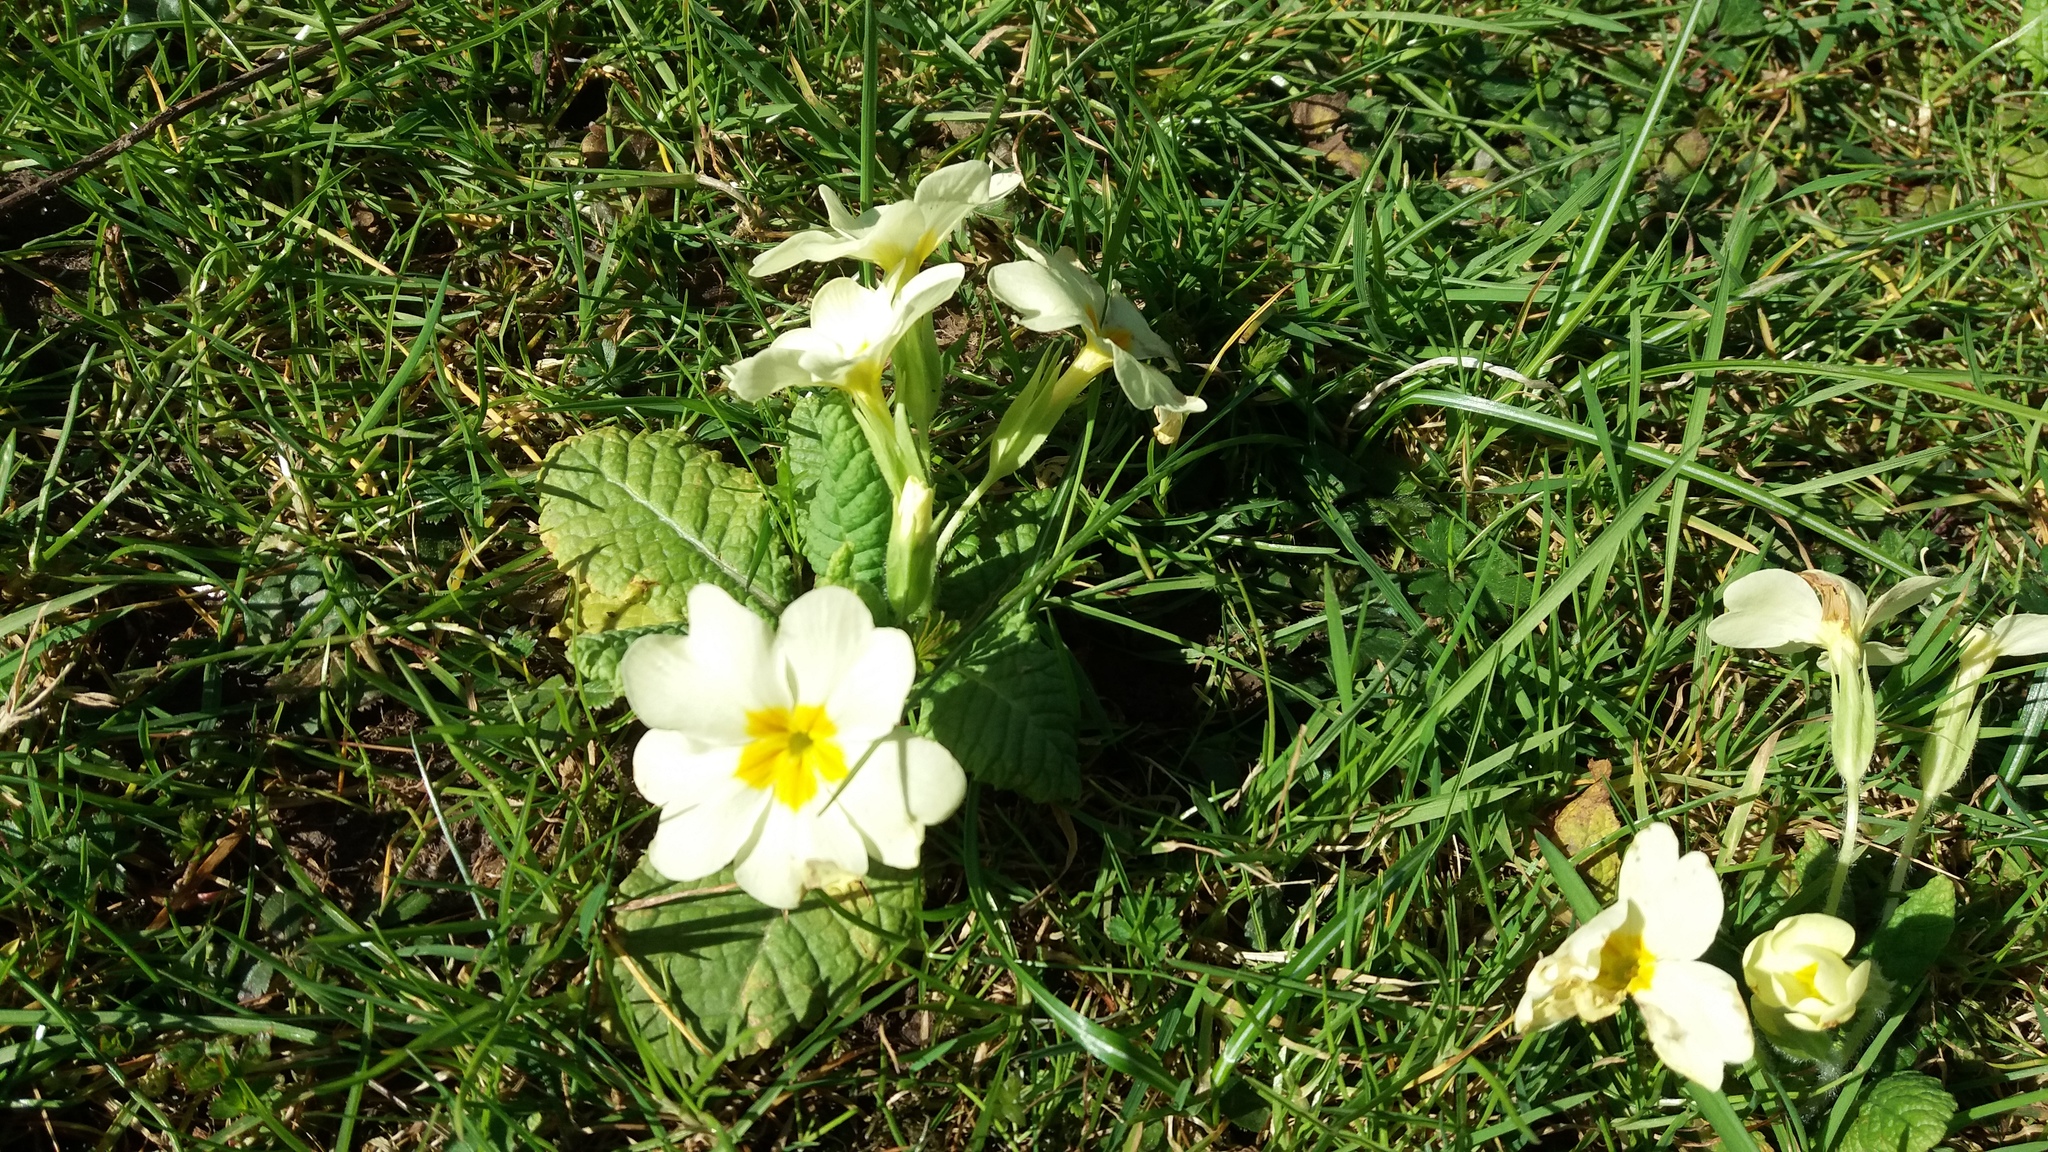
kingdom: Plantae
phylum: Tracheophyta
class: Magnoliopsida
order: Ericales
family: Primulaceae
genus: Primula
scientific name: Primula vulgaris
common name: Primrose
